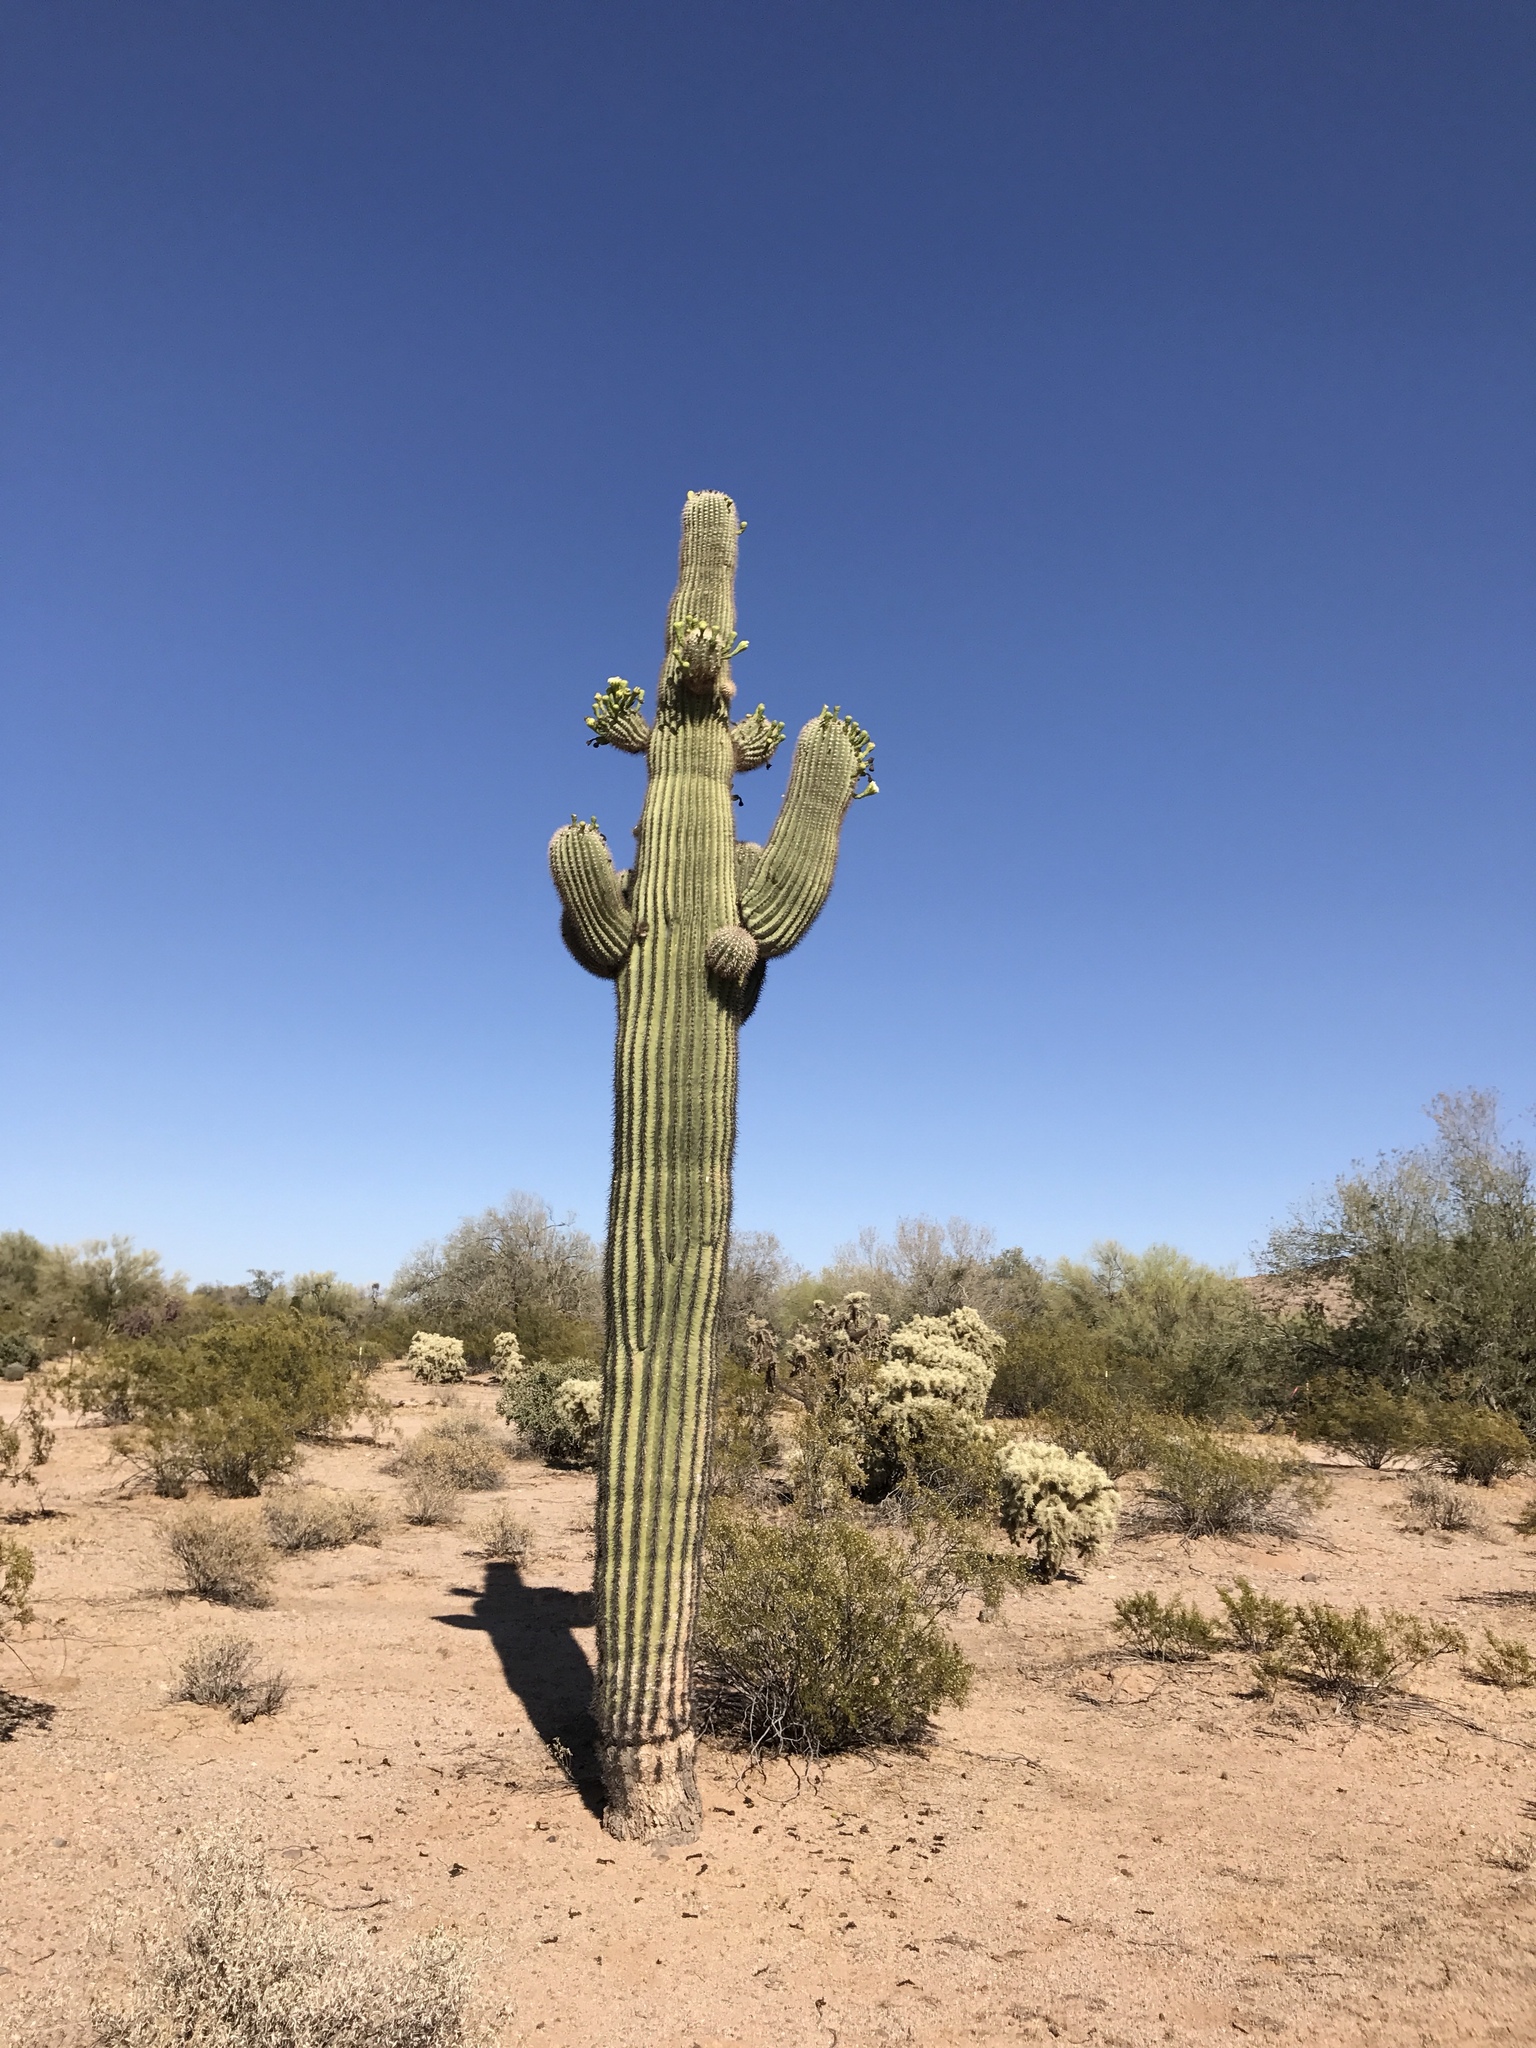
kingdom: Plantae
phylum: Tracheophyta
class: Magnoliopsida
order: Caryophyllales
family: Cactaceae
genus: Carnegiea
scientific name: Carnegiea gigantea
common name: Saguaro
